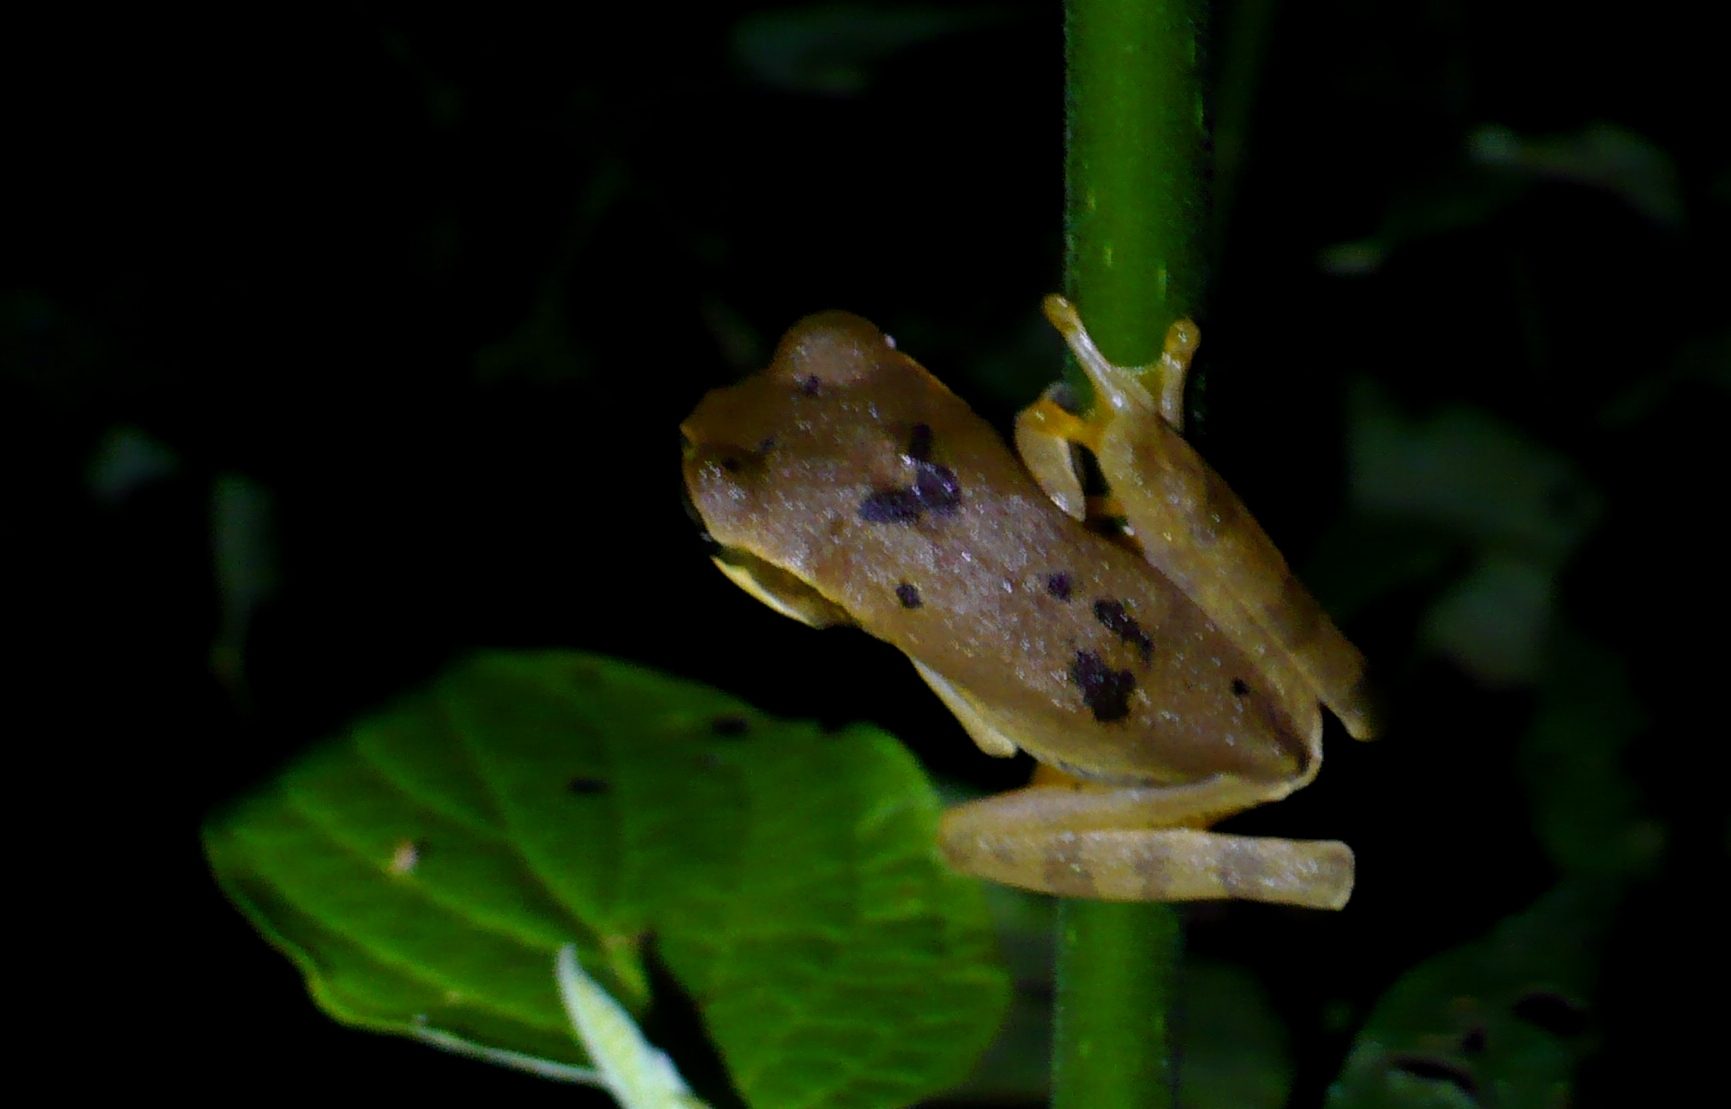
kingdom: Animalia
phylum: Chordata
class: Amphibia
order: Anura
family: Hylidae
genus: Smilisca
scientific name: Smilisca phaeota
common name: Central american smilisca
